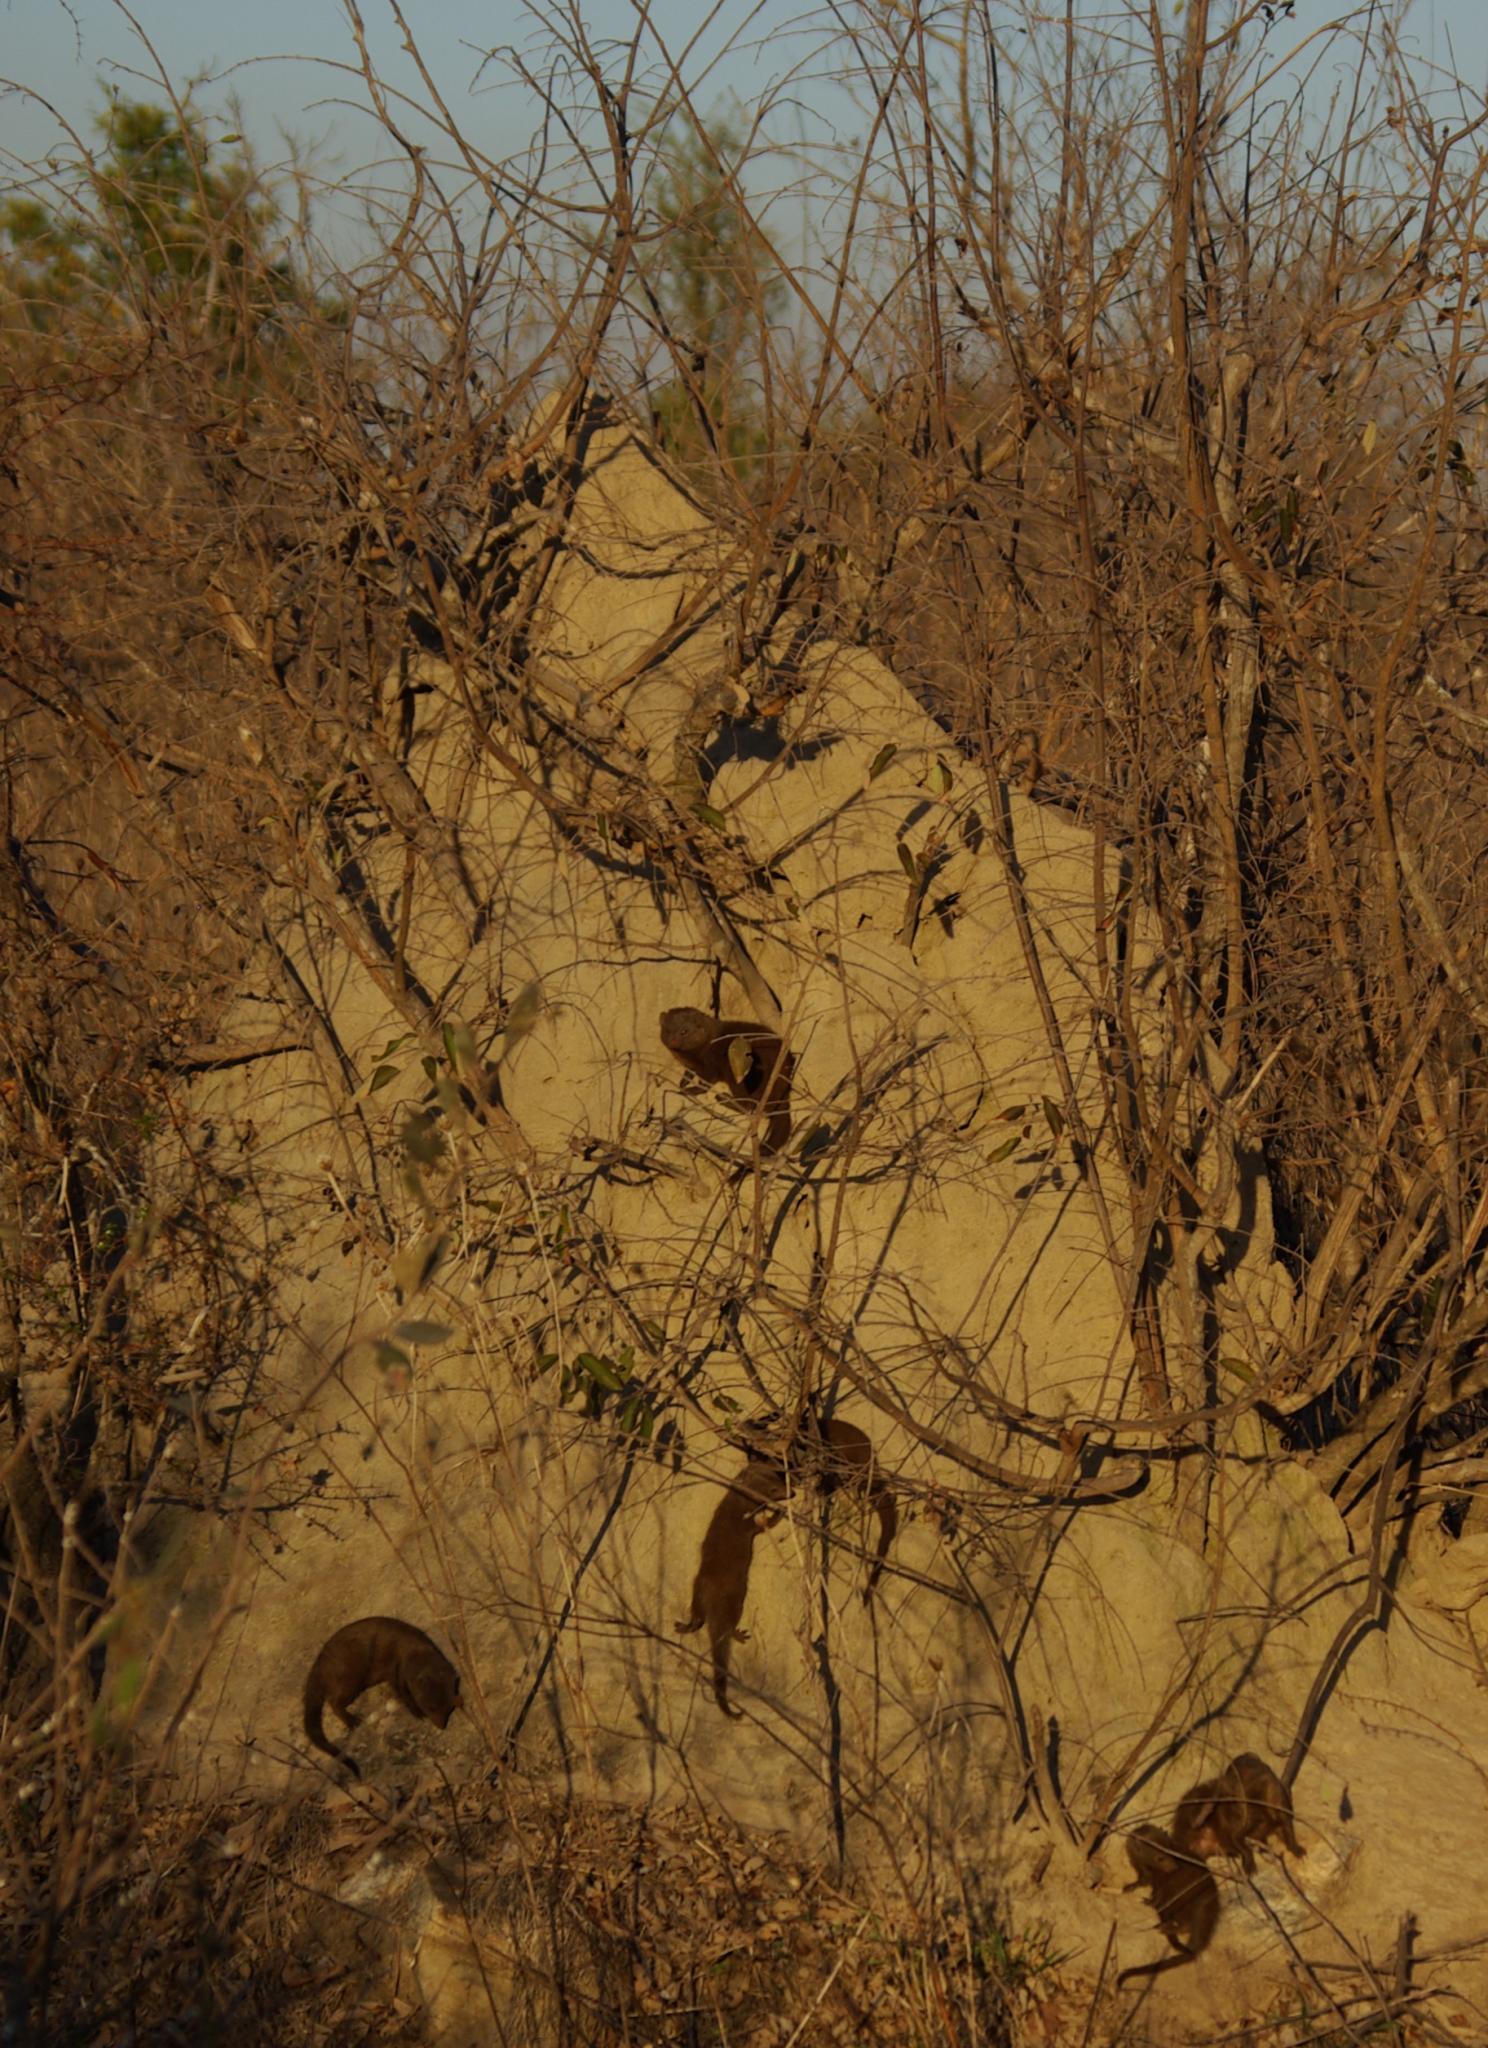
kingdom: Animalia
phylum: Chordata
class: Mammalia
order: Carnivora
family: Herpestidae
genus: Helogale
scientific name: Helogale parvula
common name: Common dwarf mongoose
